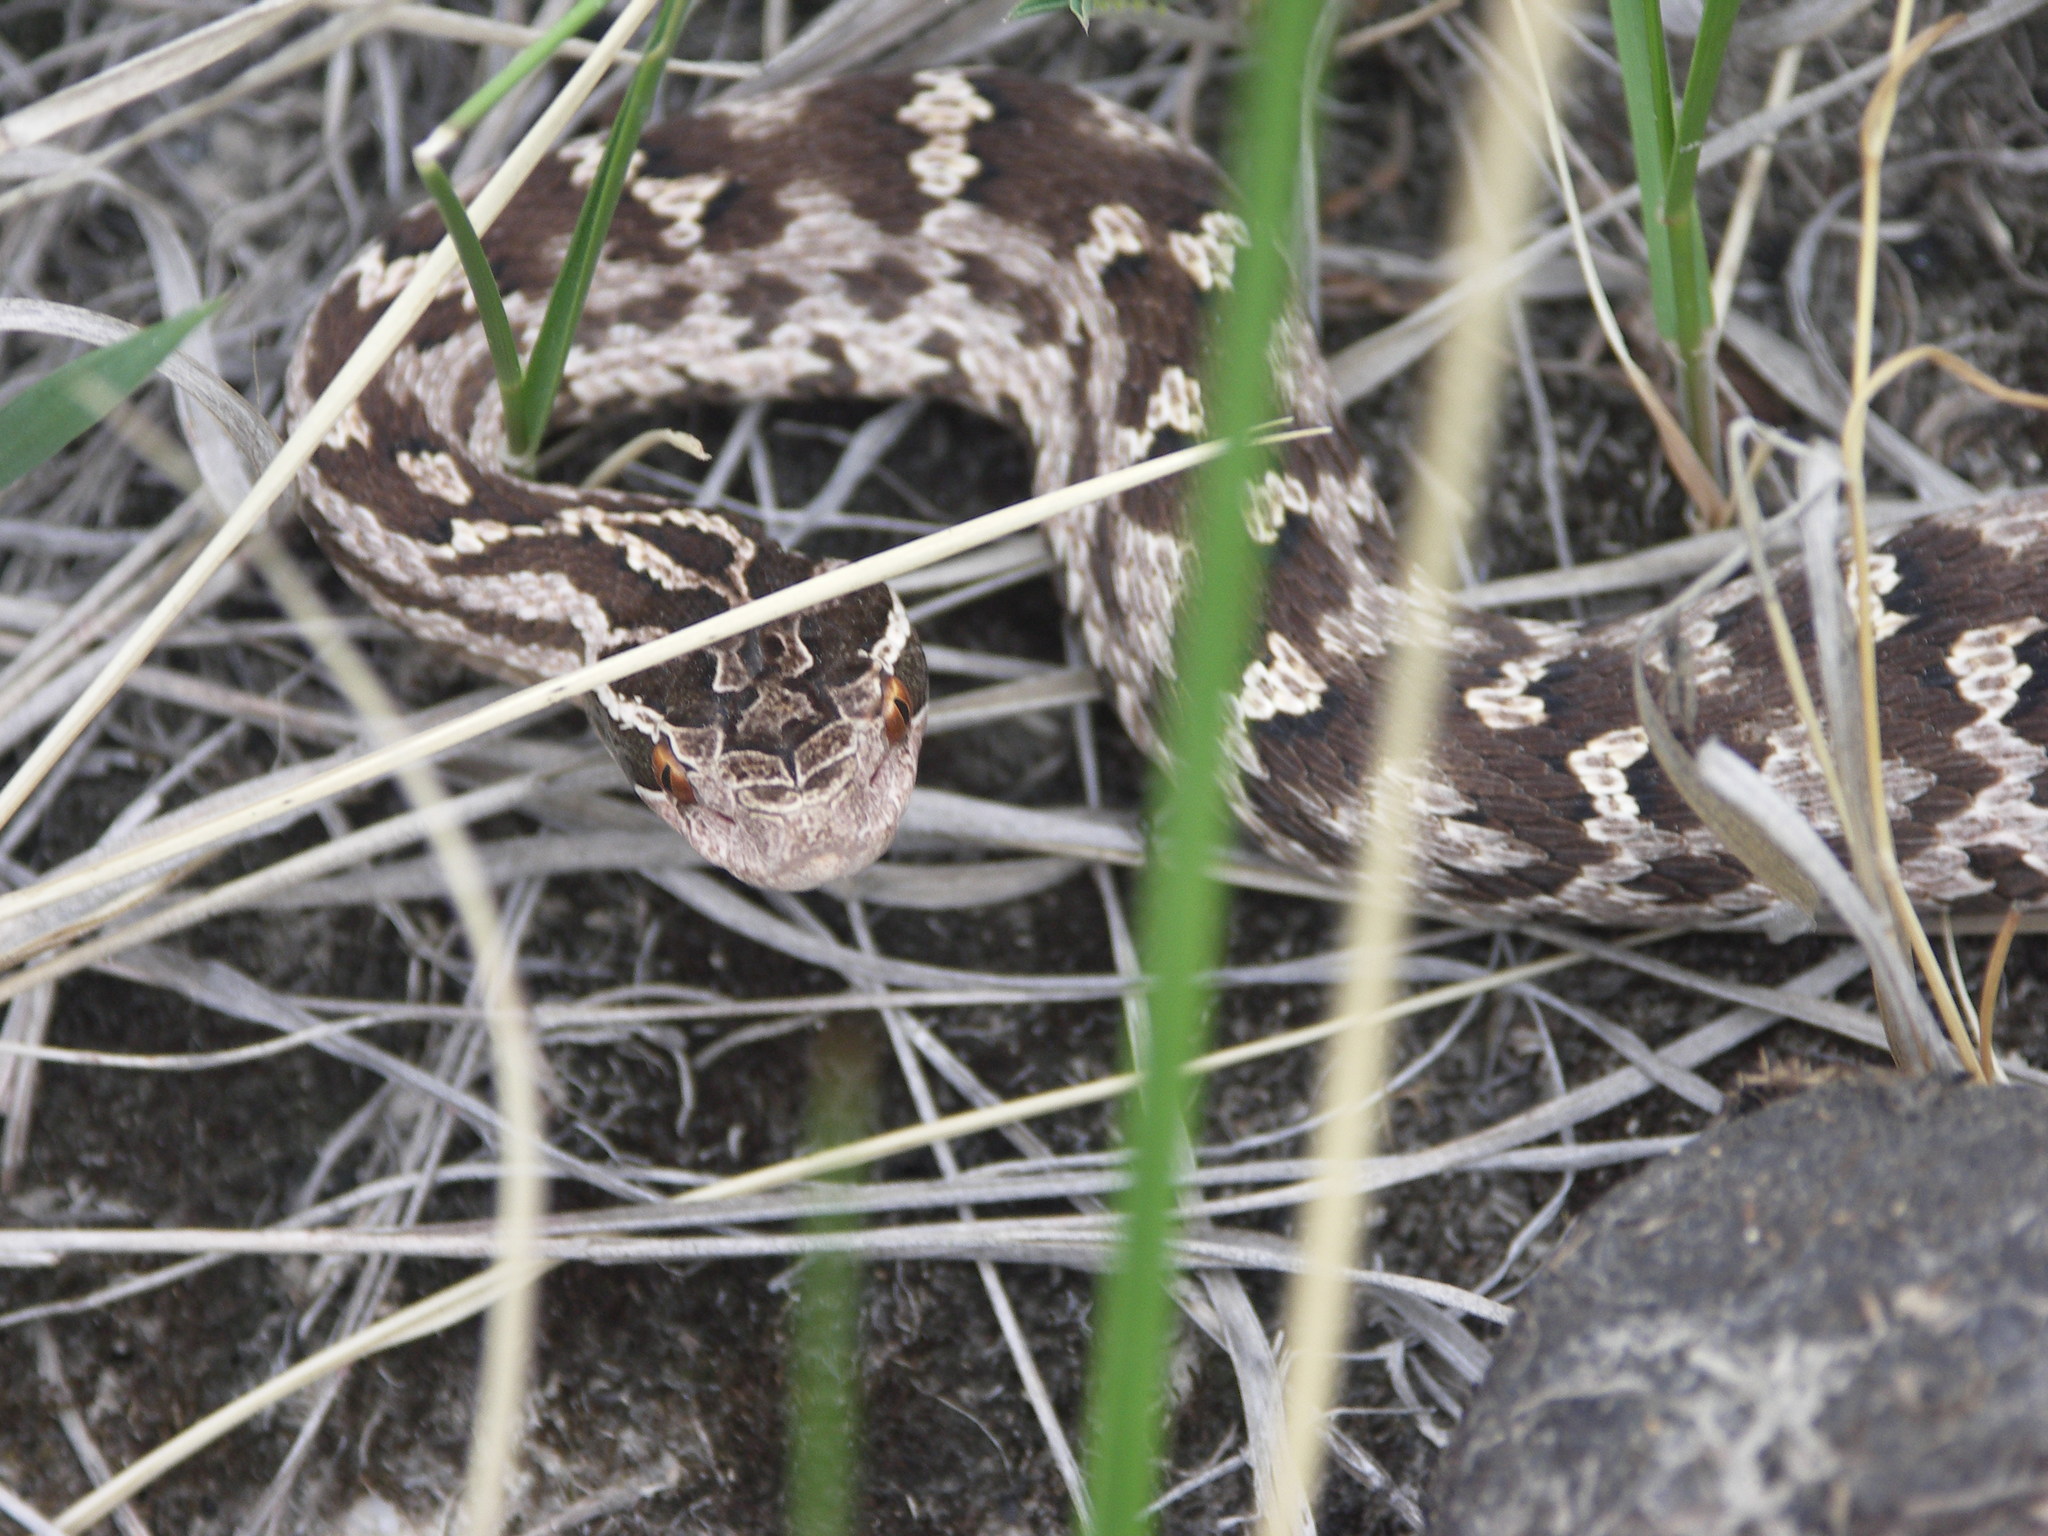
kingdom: Animalia
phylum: Chordata
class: Squamata
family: Viperidae
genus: Gloydius
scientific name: Gloydius halys
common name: Halys pit viper
